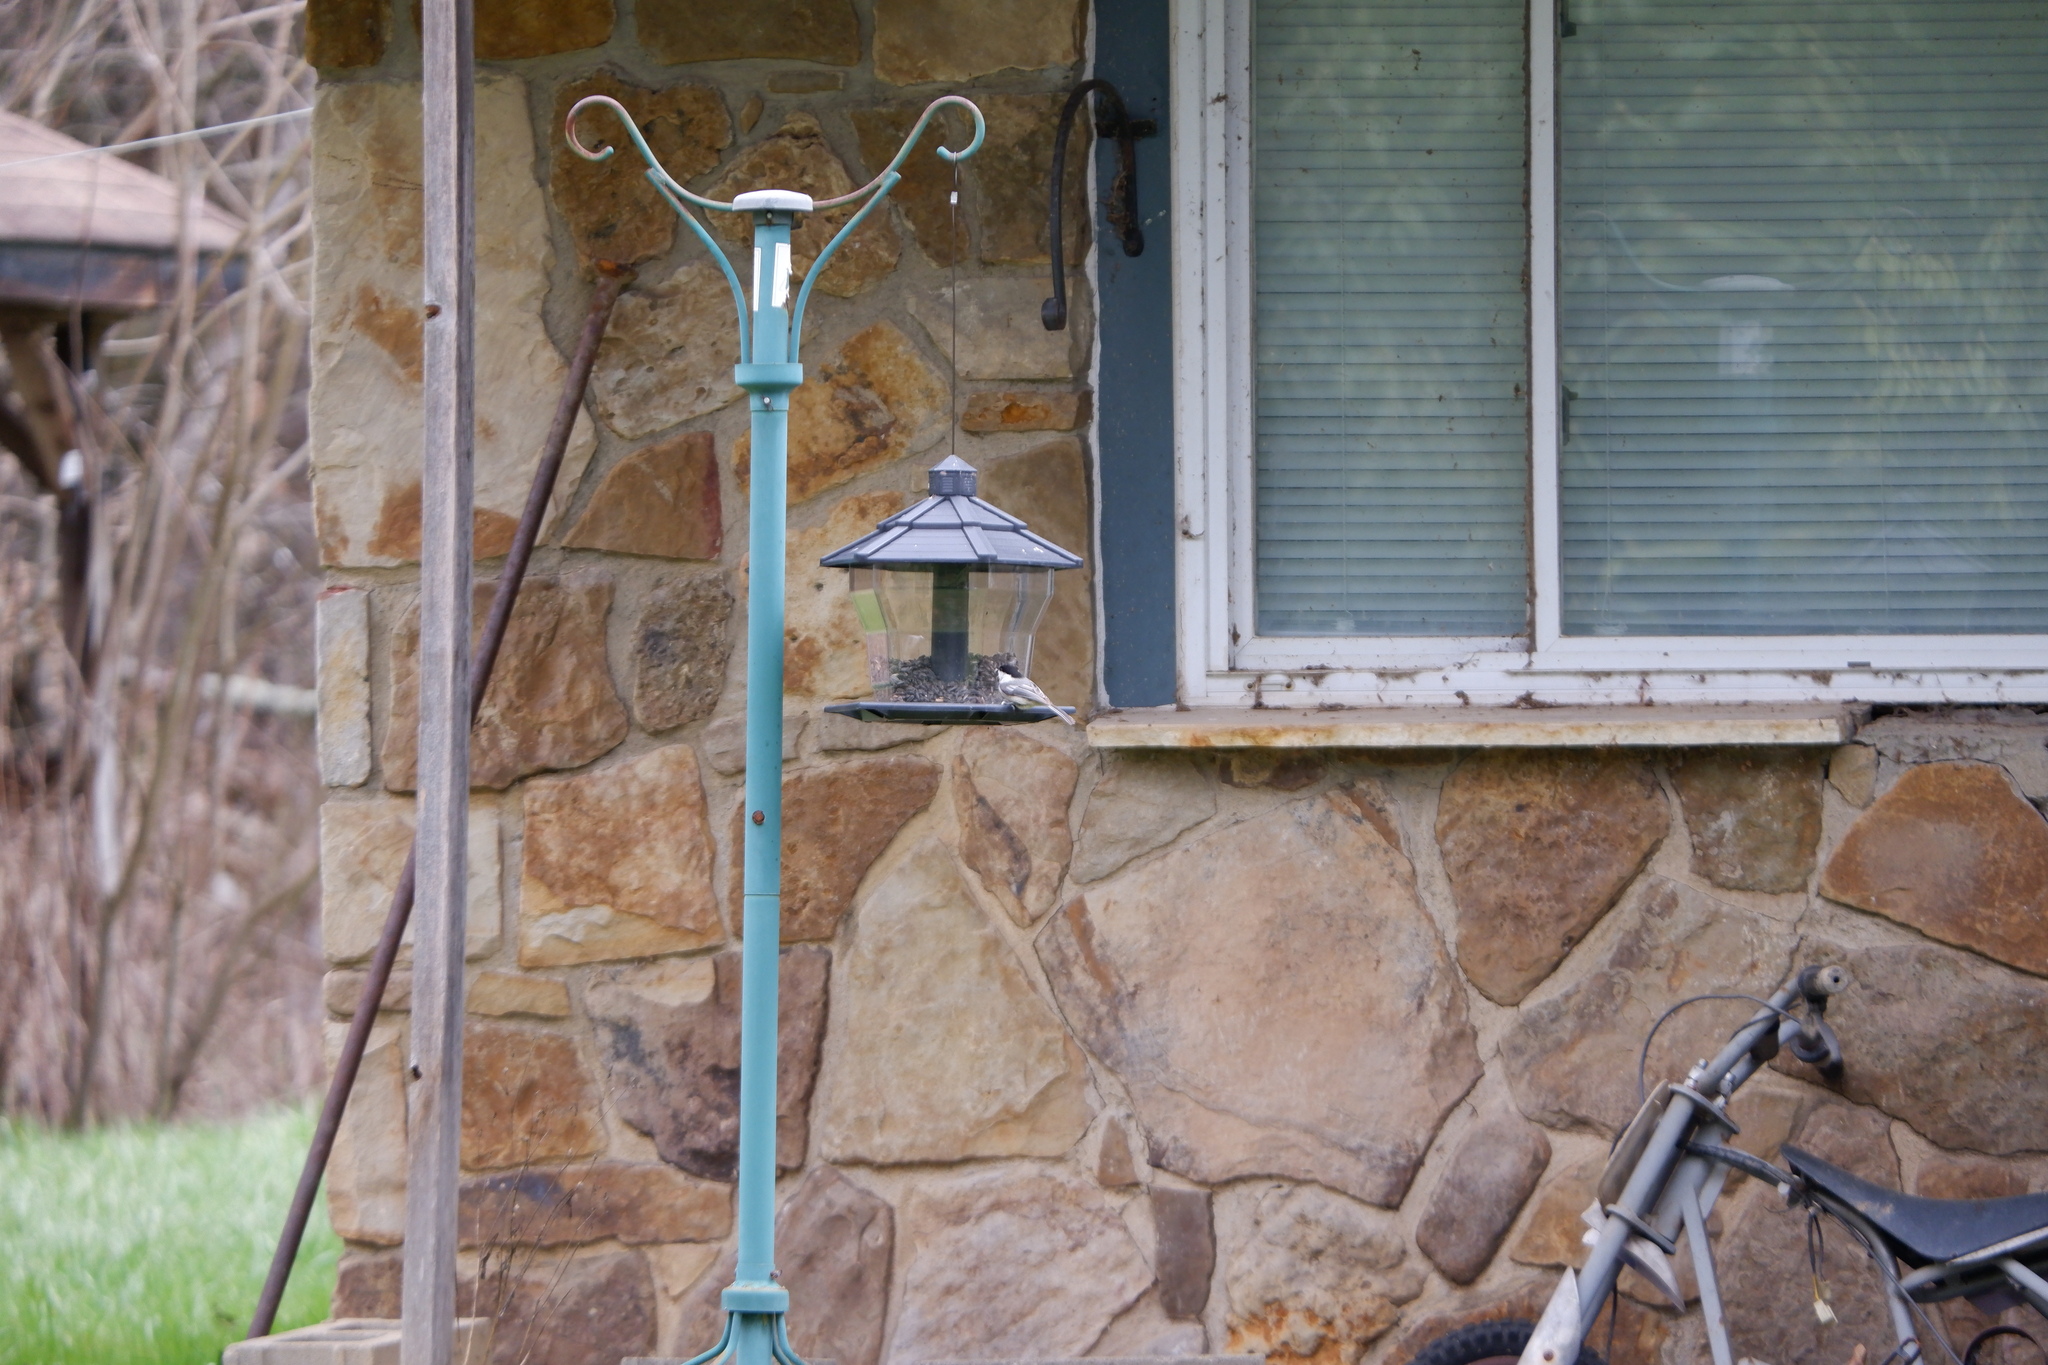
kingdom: Animalia
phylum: Chordata
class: Aves
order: Passeriformes
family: Paridae
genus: Poecile
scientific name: Poecile atricapillus
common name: Black-capped chickadee
